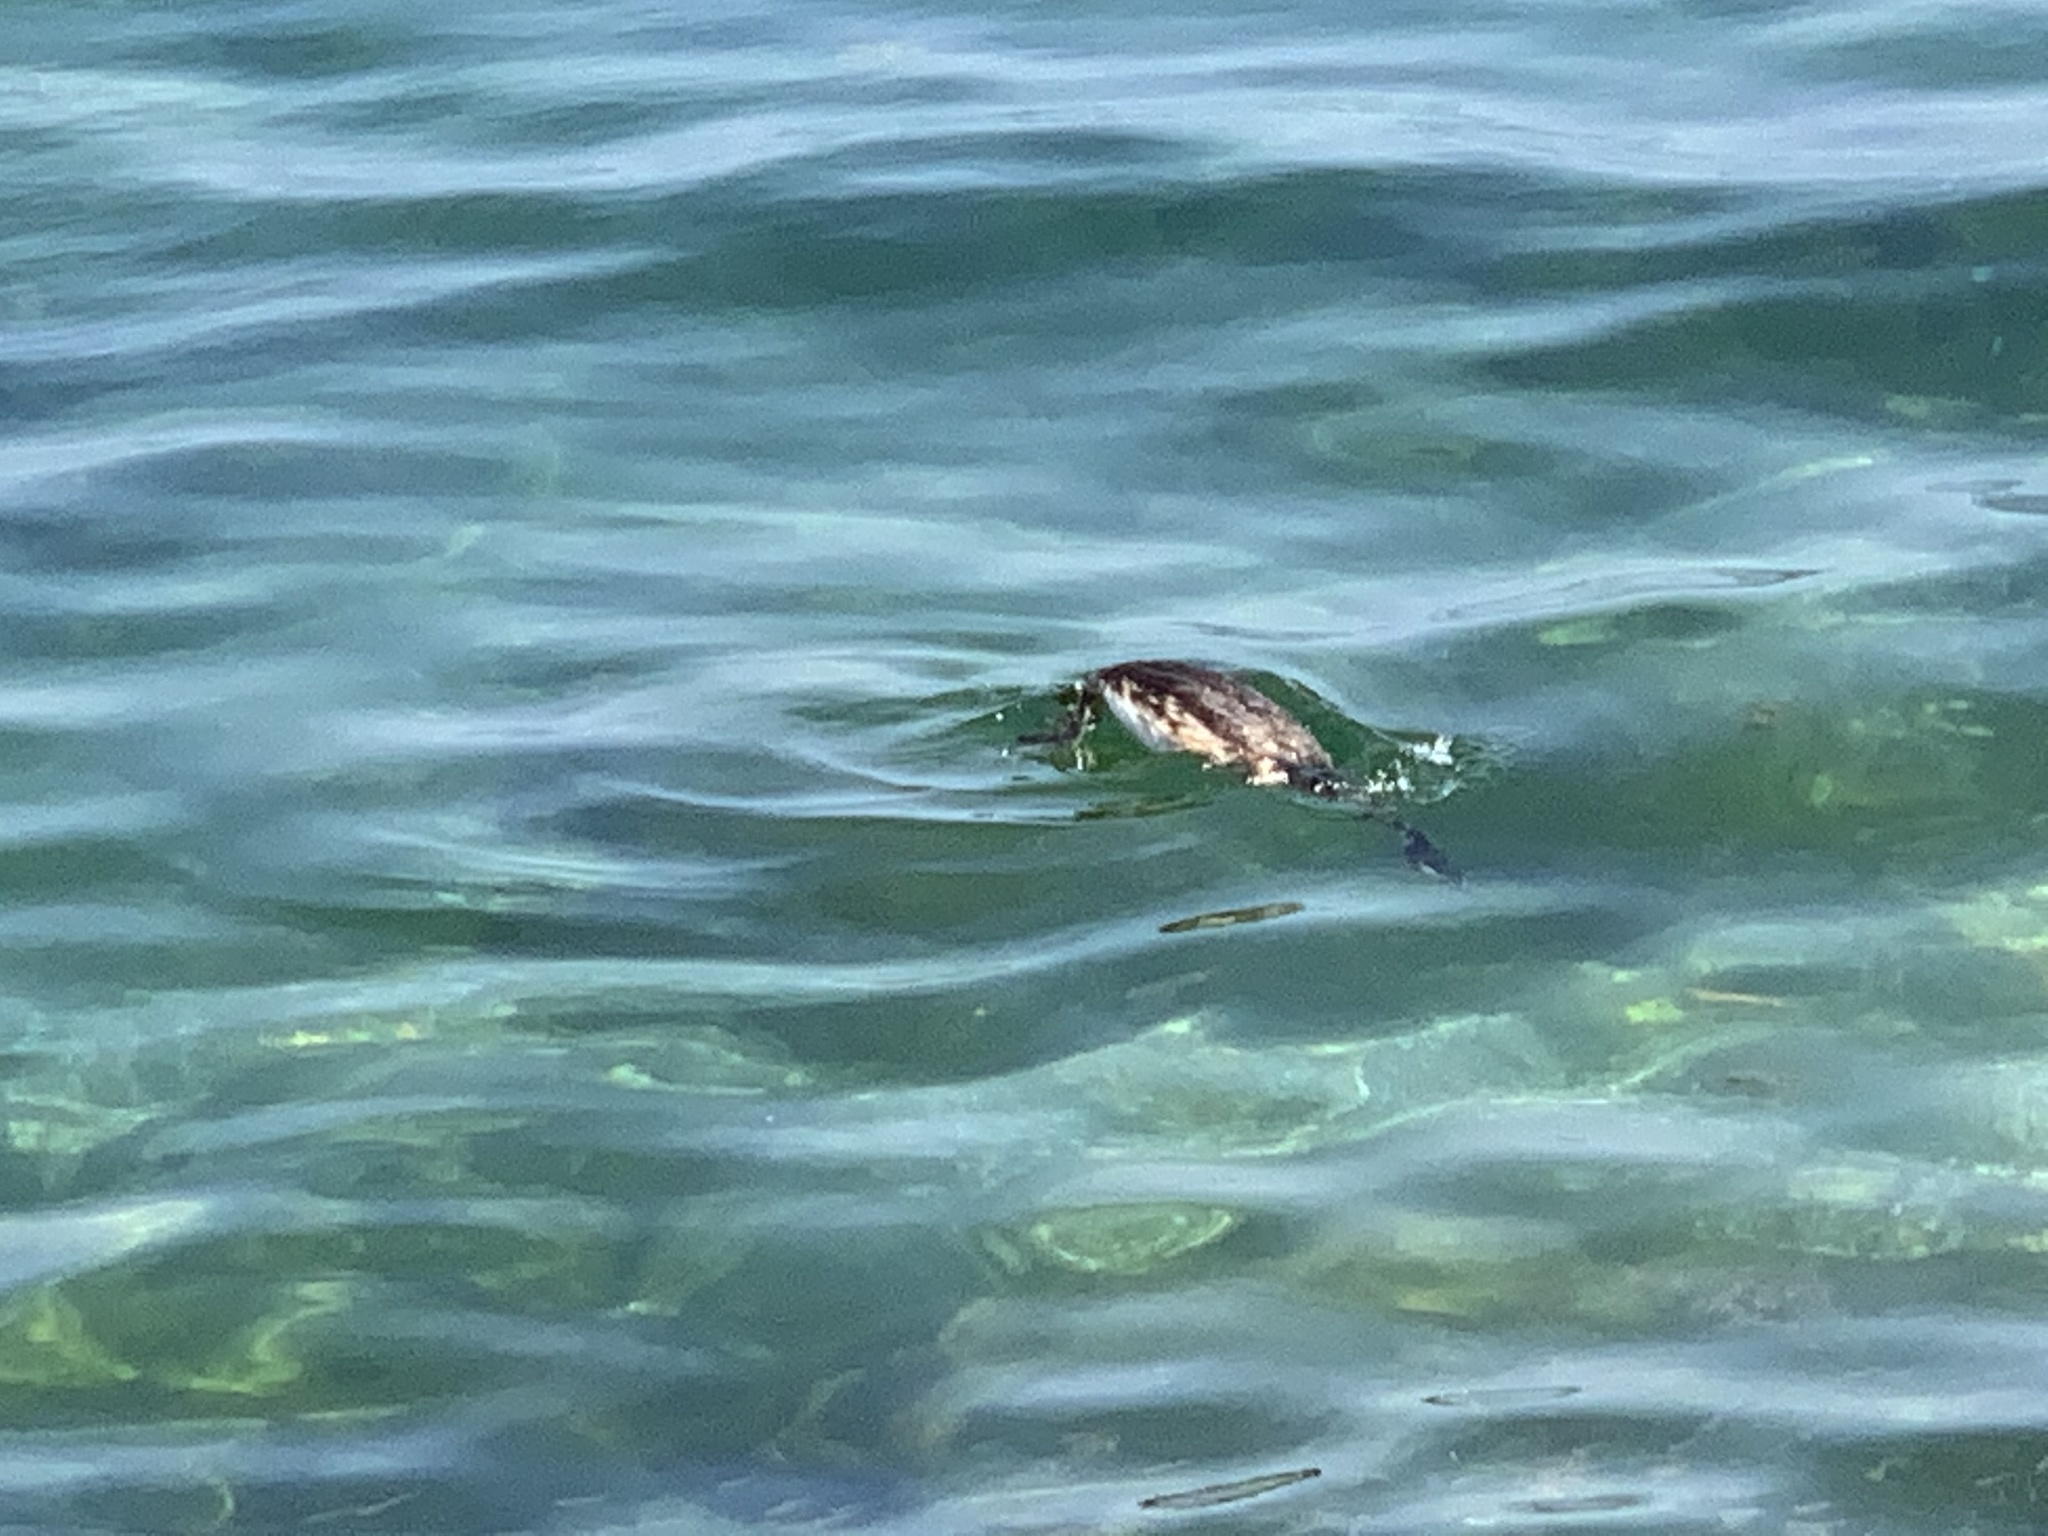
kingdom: Animalia
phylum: Chordata
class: Aves
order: Podicipediformes
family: Podicipedidae
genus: Podiceps
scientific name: Podiceps cristatus
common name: Great crested grebe
